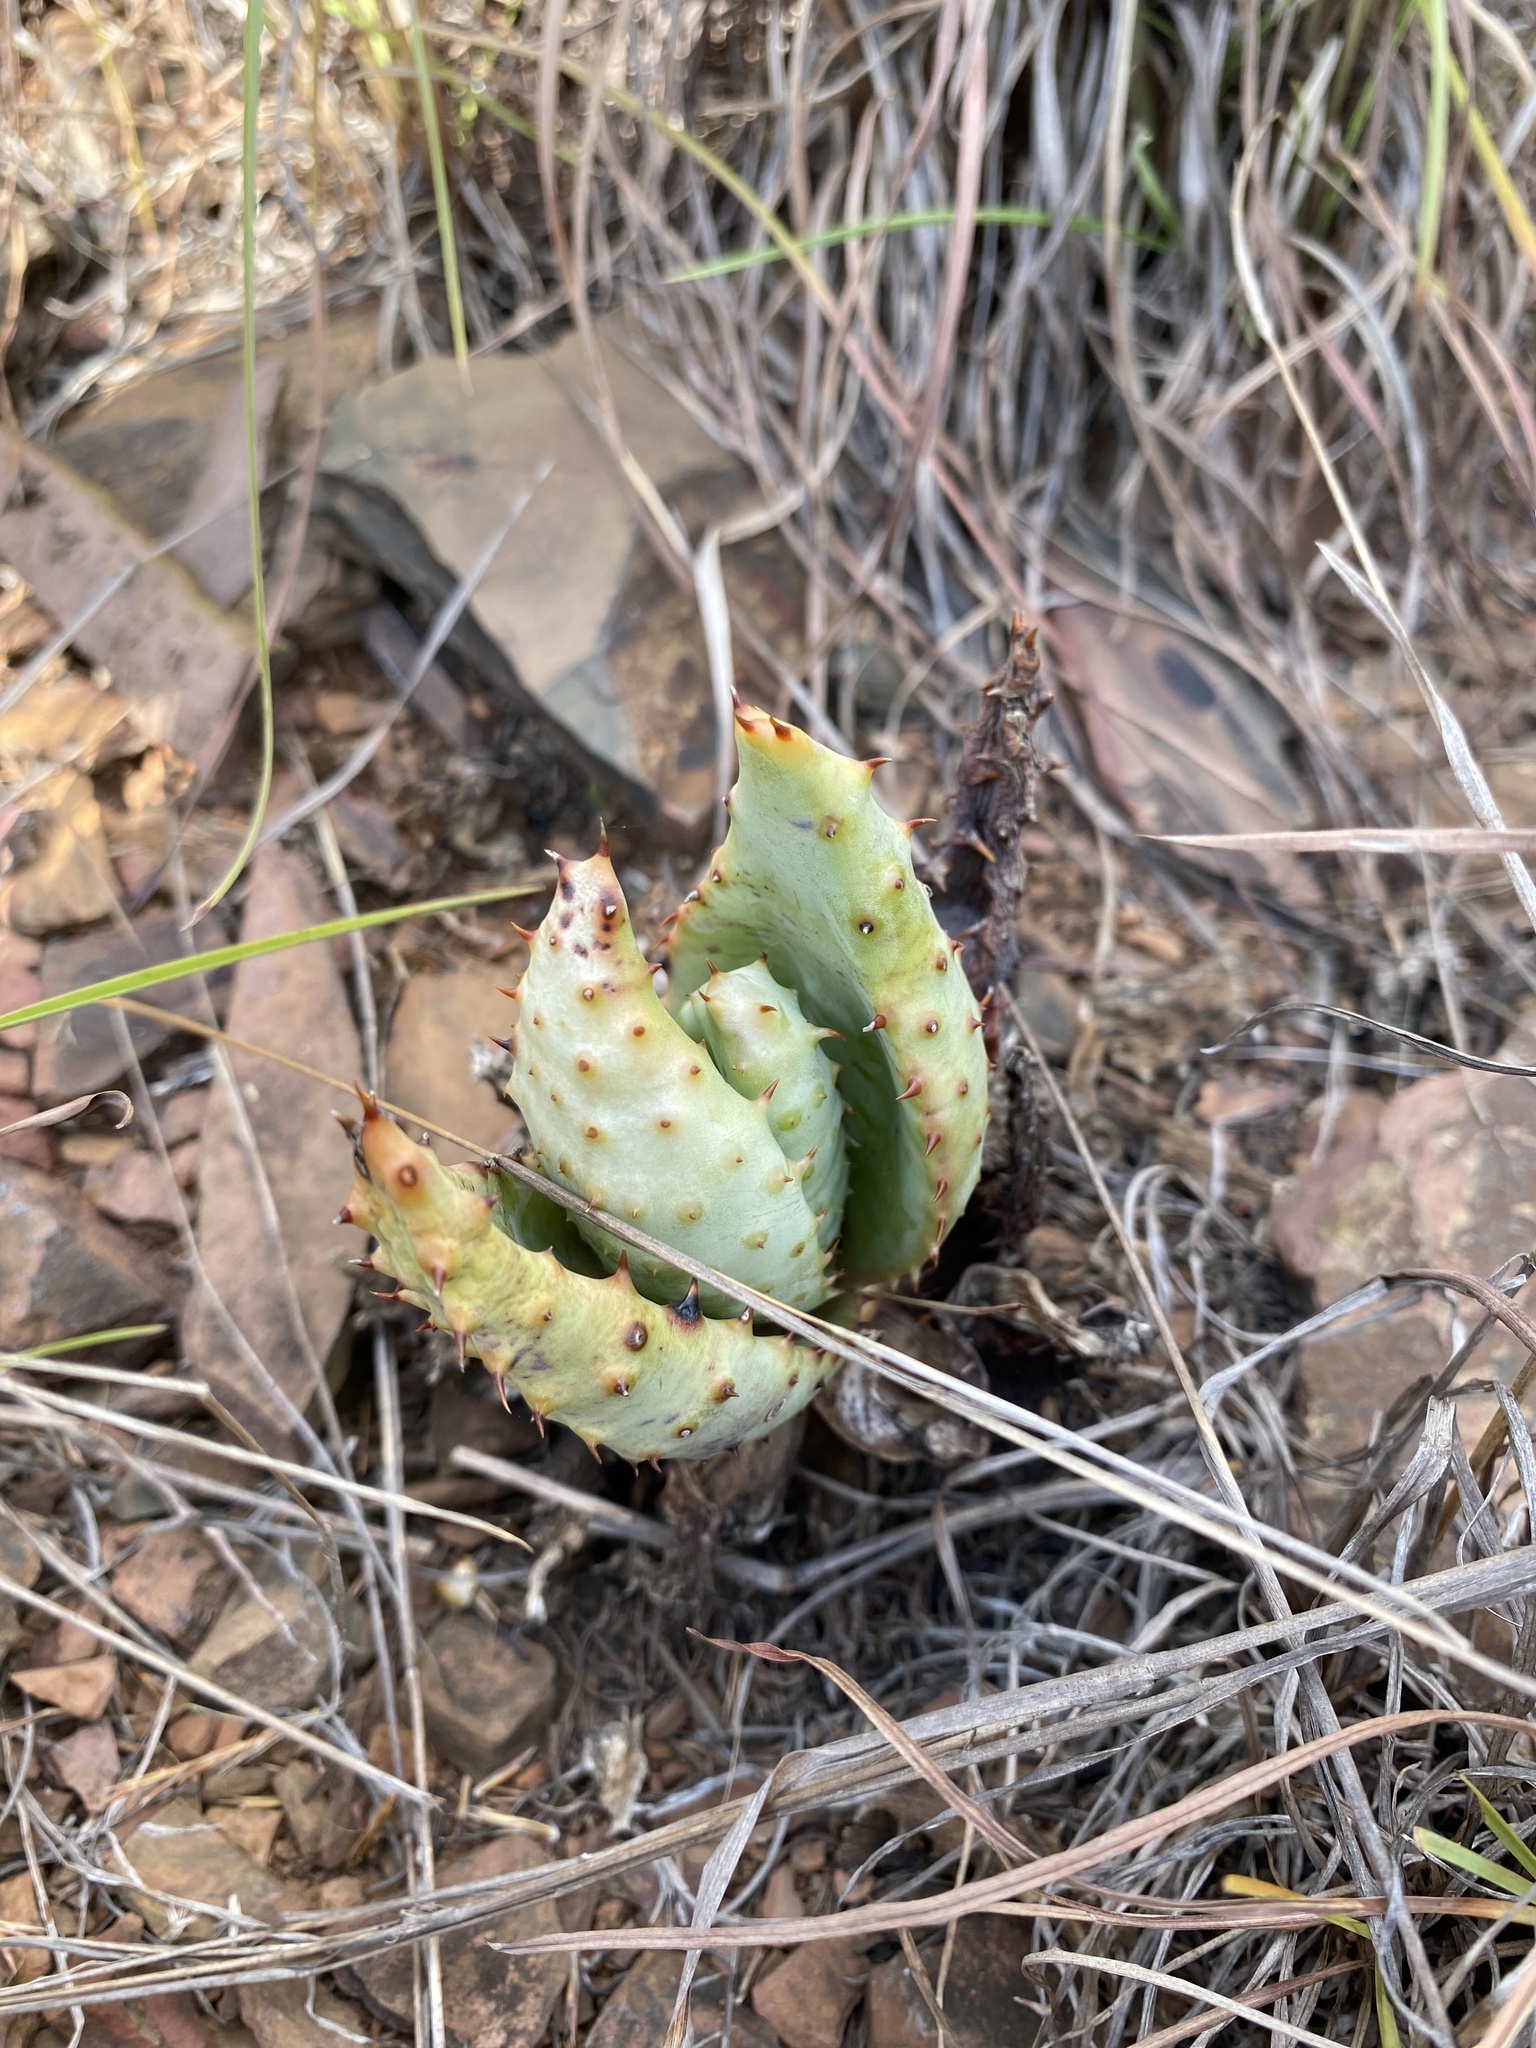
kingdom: Plantae
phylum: Tracheophyta
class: Liliopsida
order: Asparagales
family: Asphodelaceae
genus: Aloe
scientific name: Aloe marlothii
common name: Flat-flowered aloe
